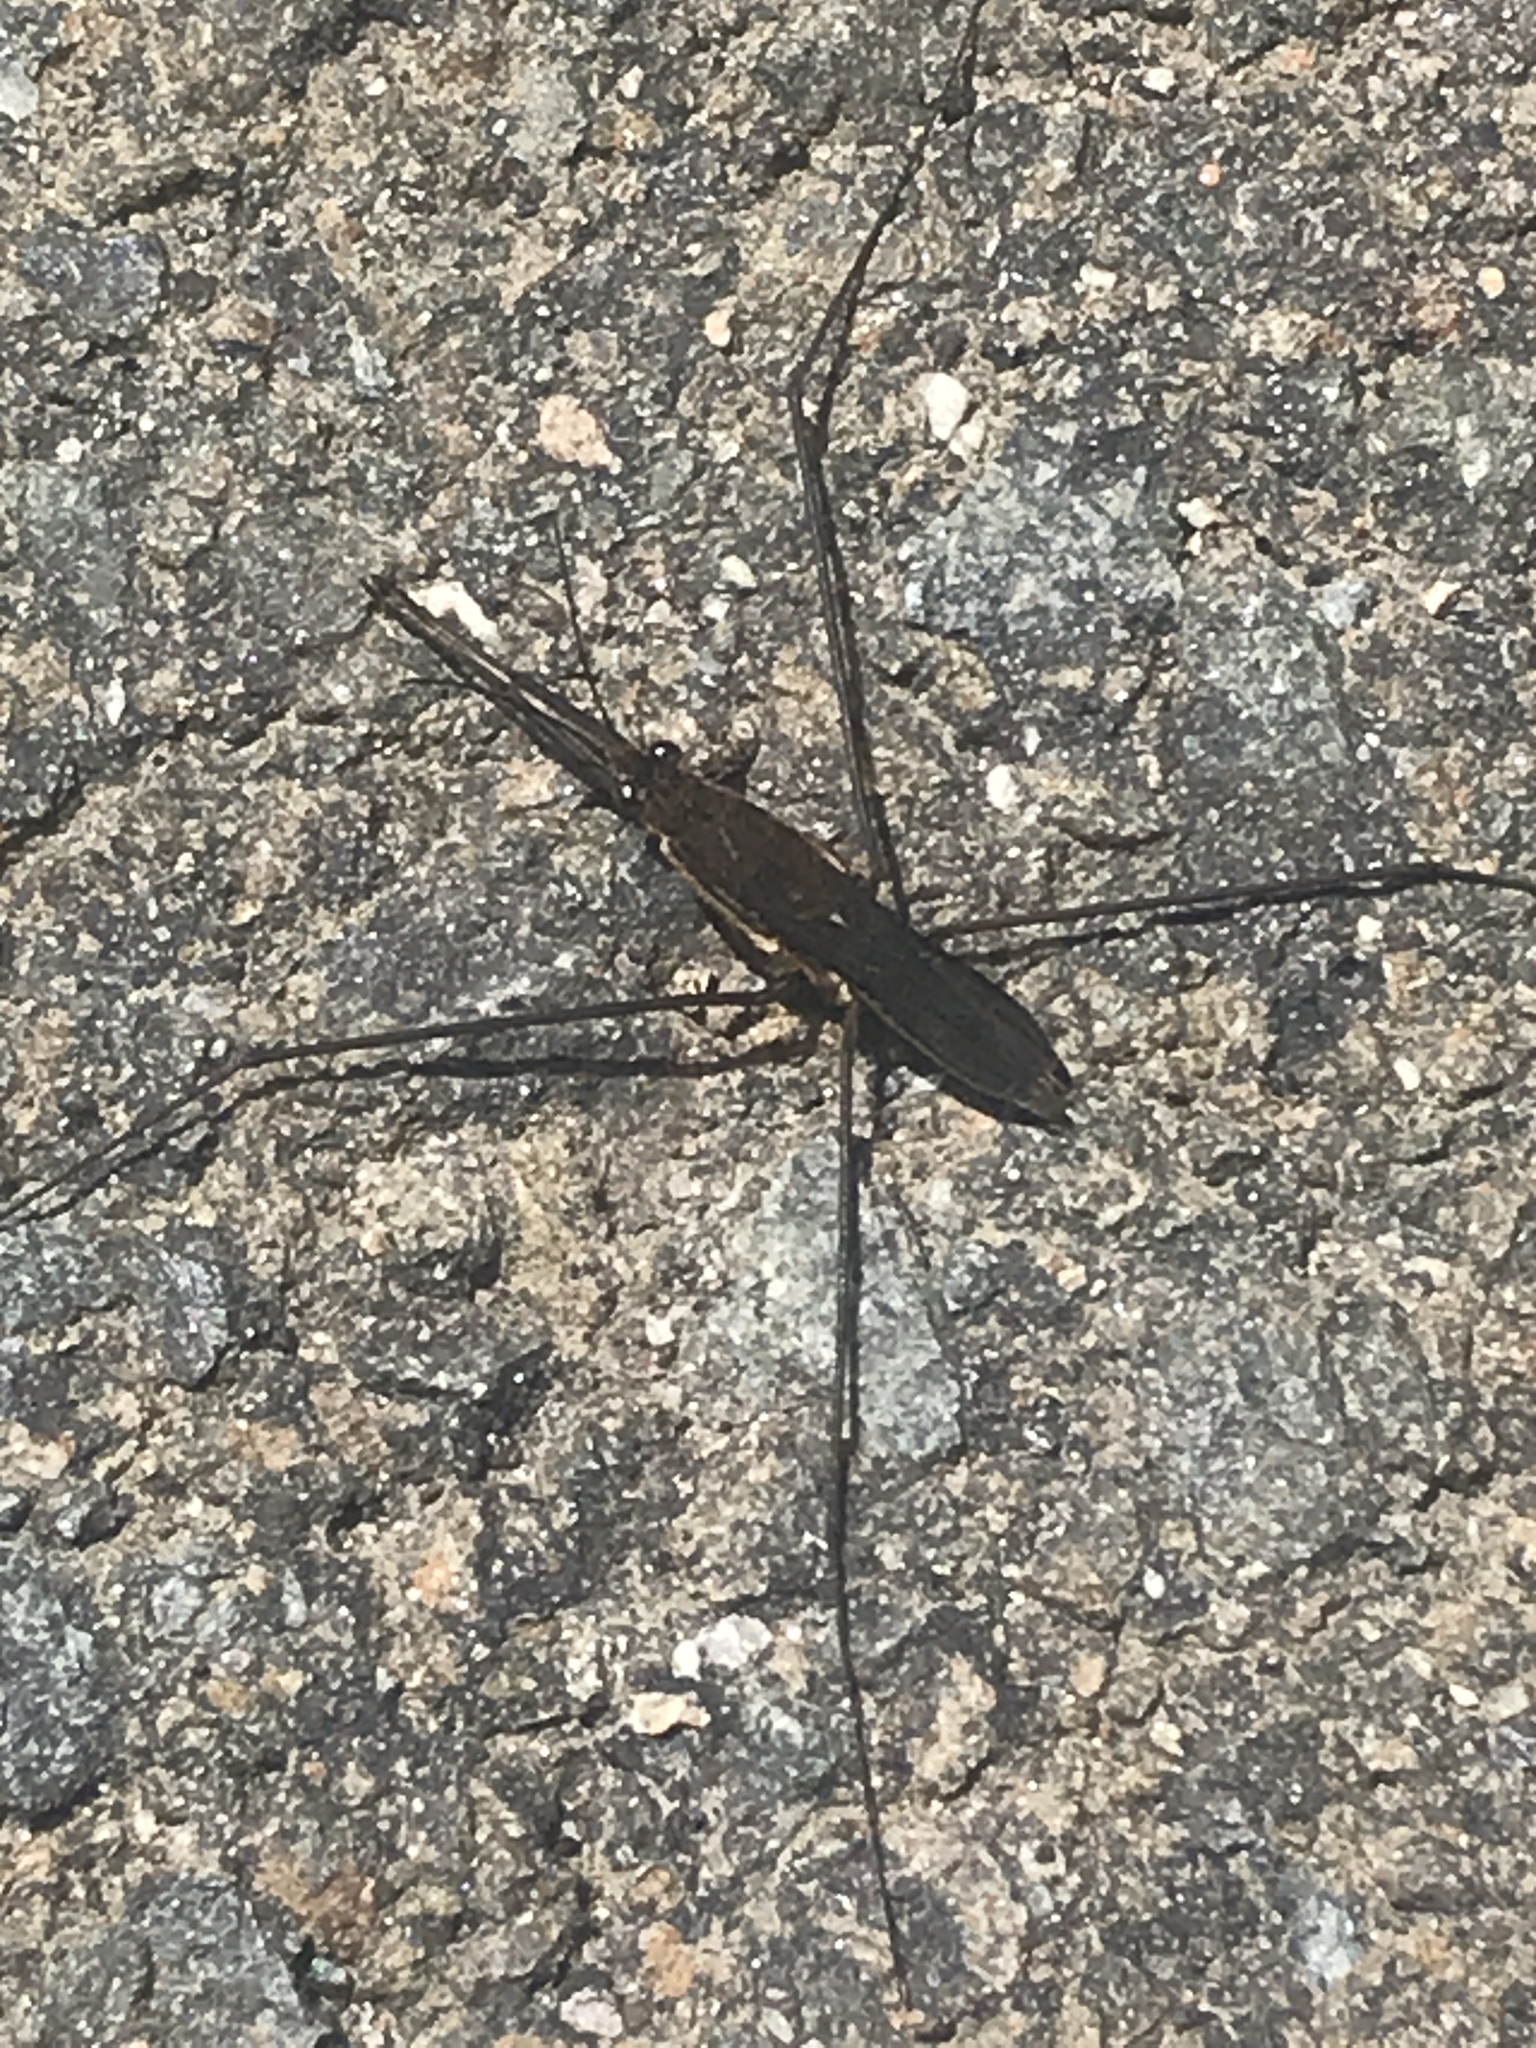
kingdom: Animalia
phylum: Arthropoda
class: Insecta
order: Hemiptera
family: Gerridae
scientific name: Gerridae
